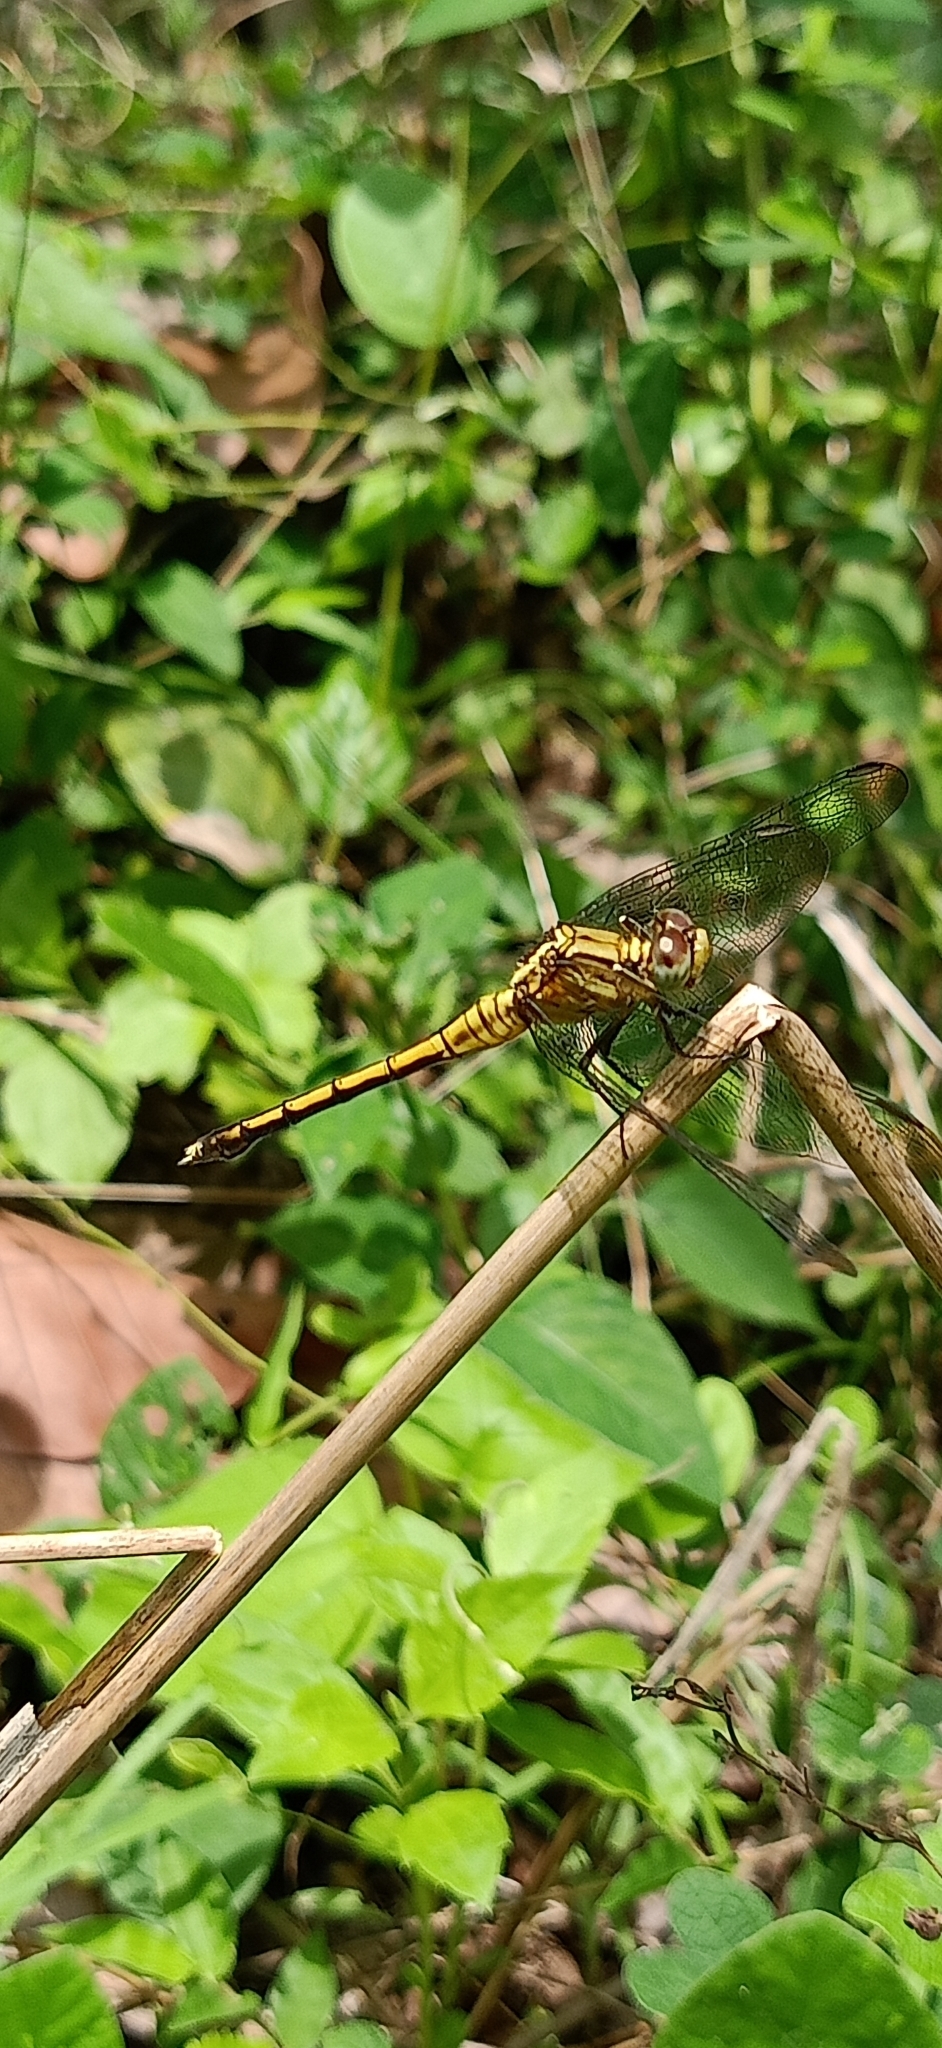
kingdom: Animalia
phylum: Arthropoda
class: Insecta
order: Odonata
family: Libellulidae
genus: Orthetrum
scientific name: Orthetrum luzonicum
